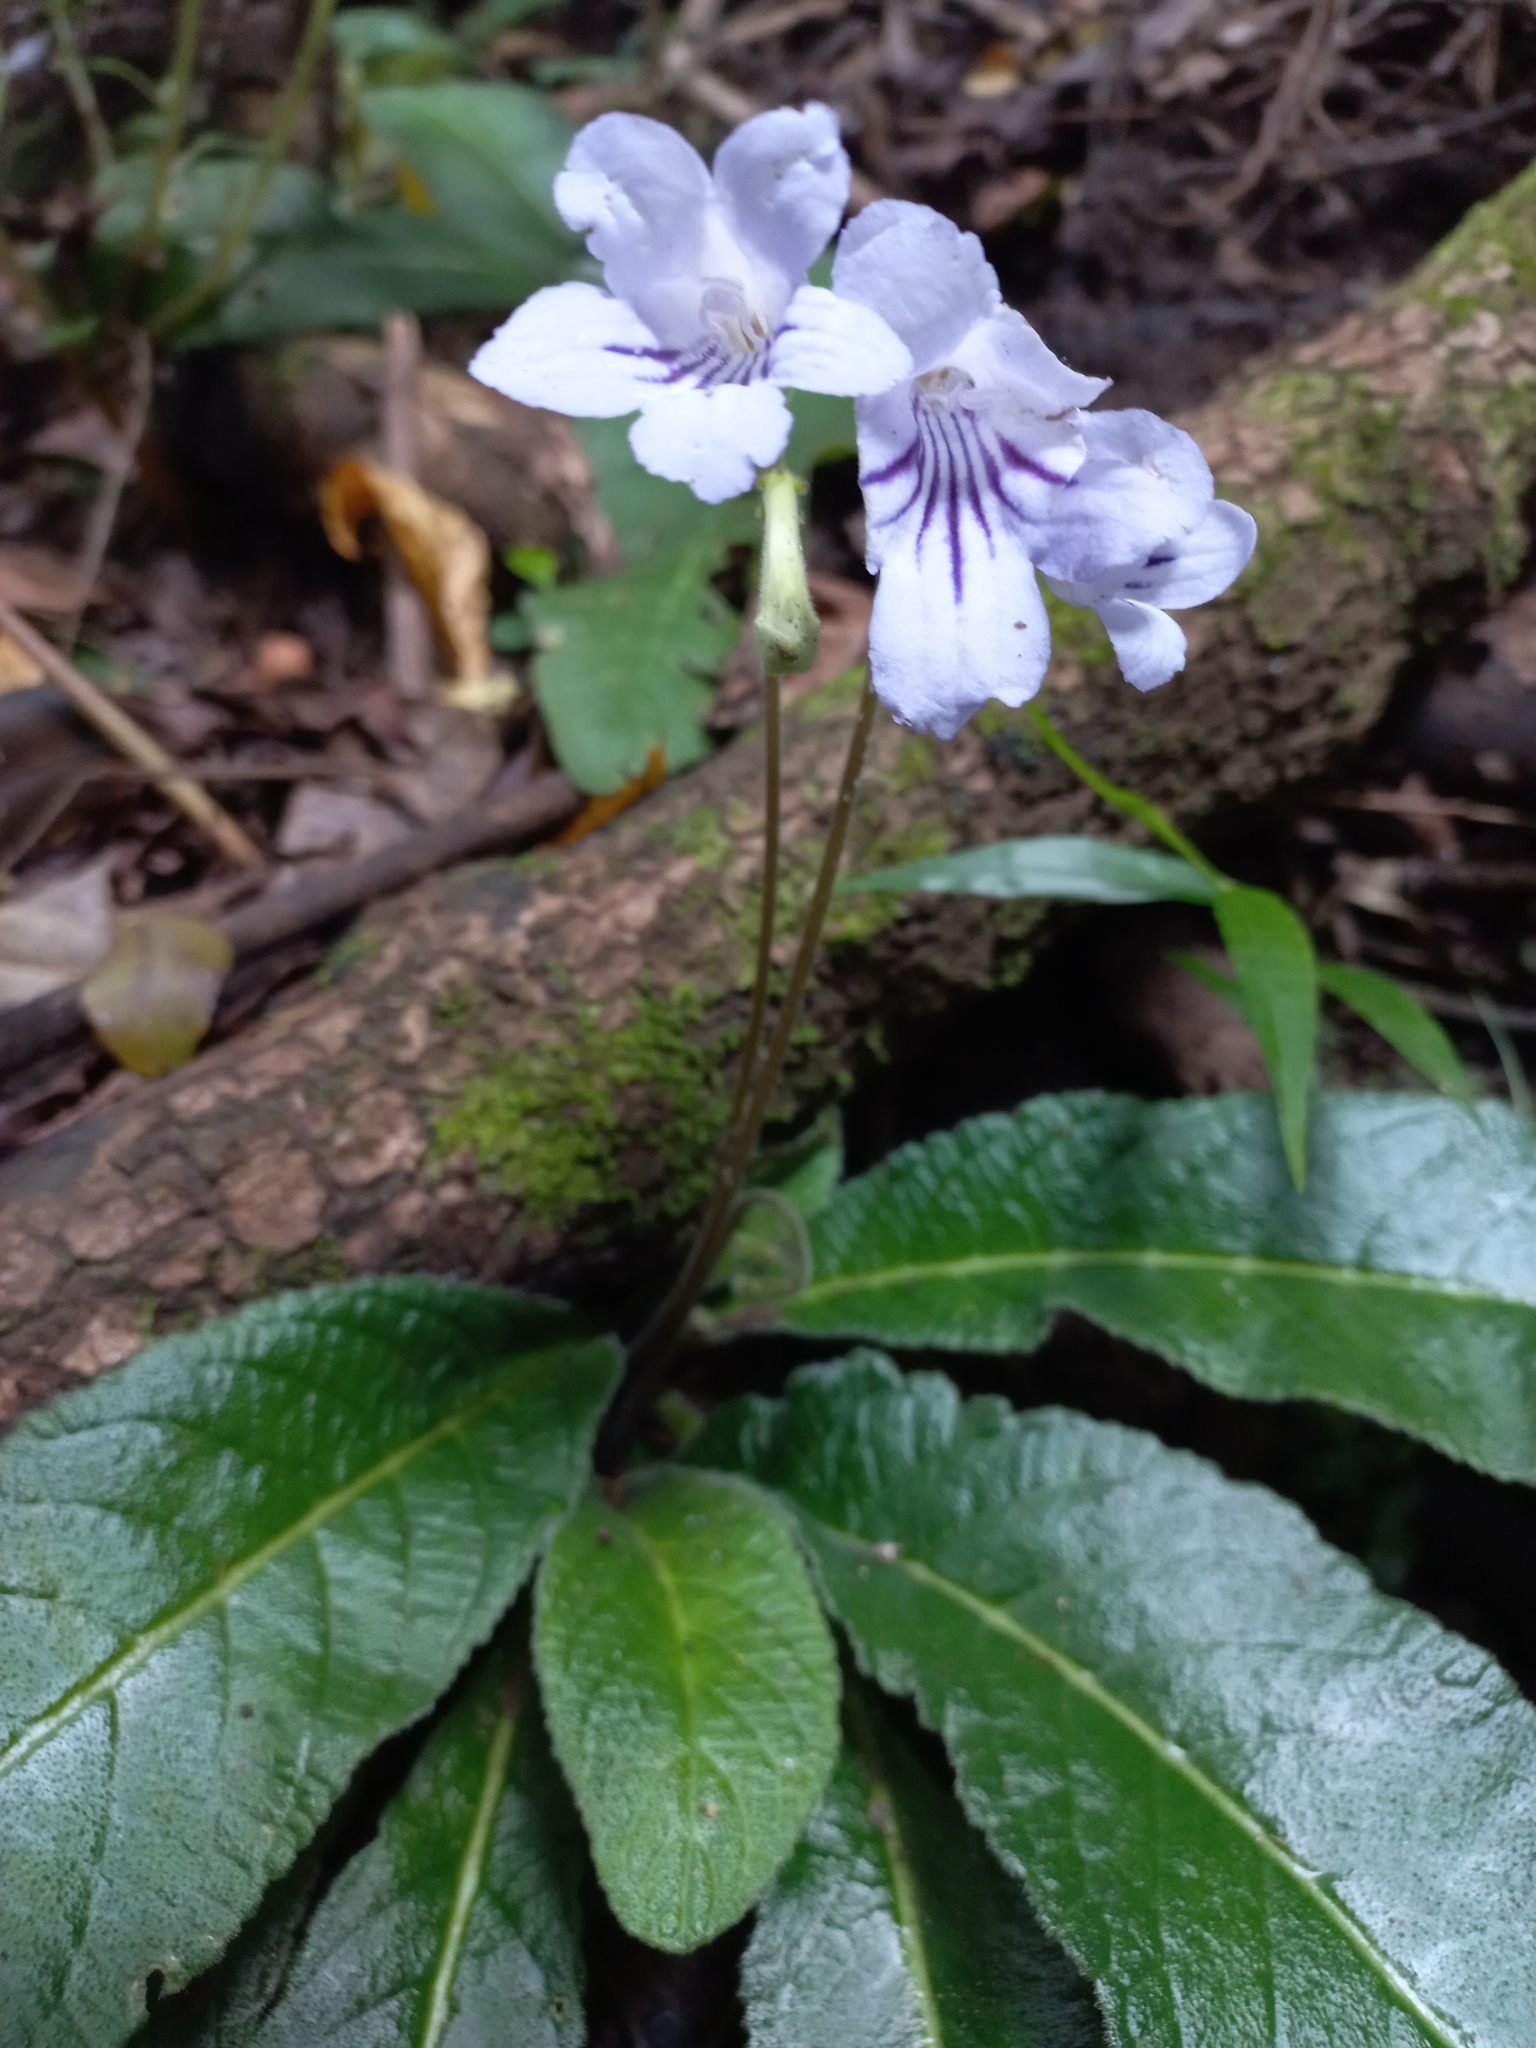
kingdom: Plantae
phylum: Tracheophyta
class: Magnoliopsida
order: Lamiales
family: Gesneriaceae
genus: Streptocarpus
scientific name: Streptocarpus rexii
